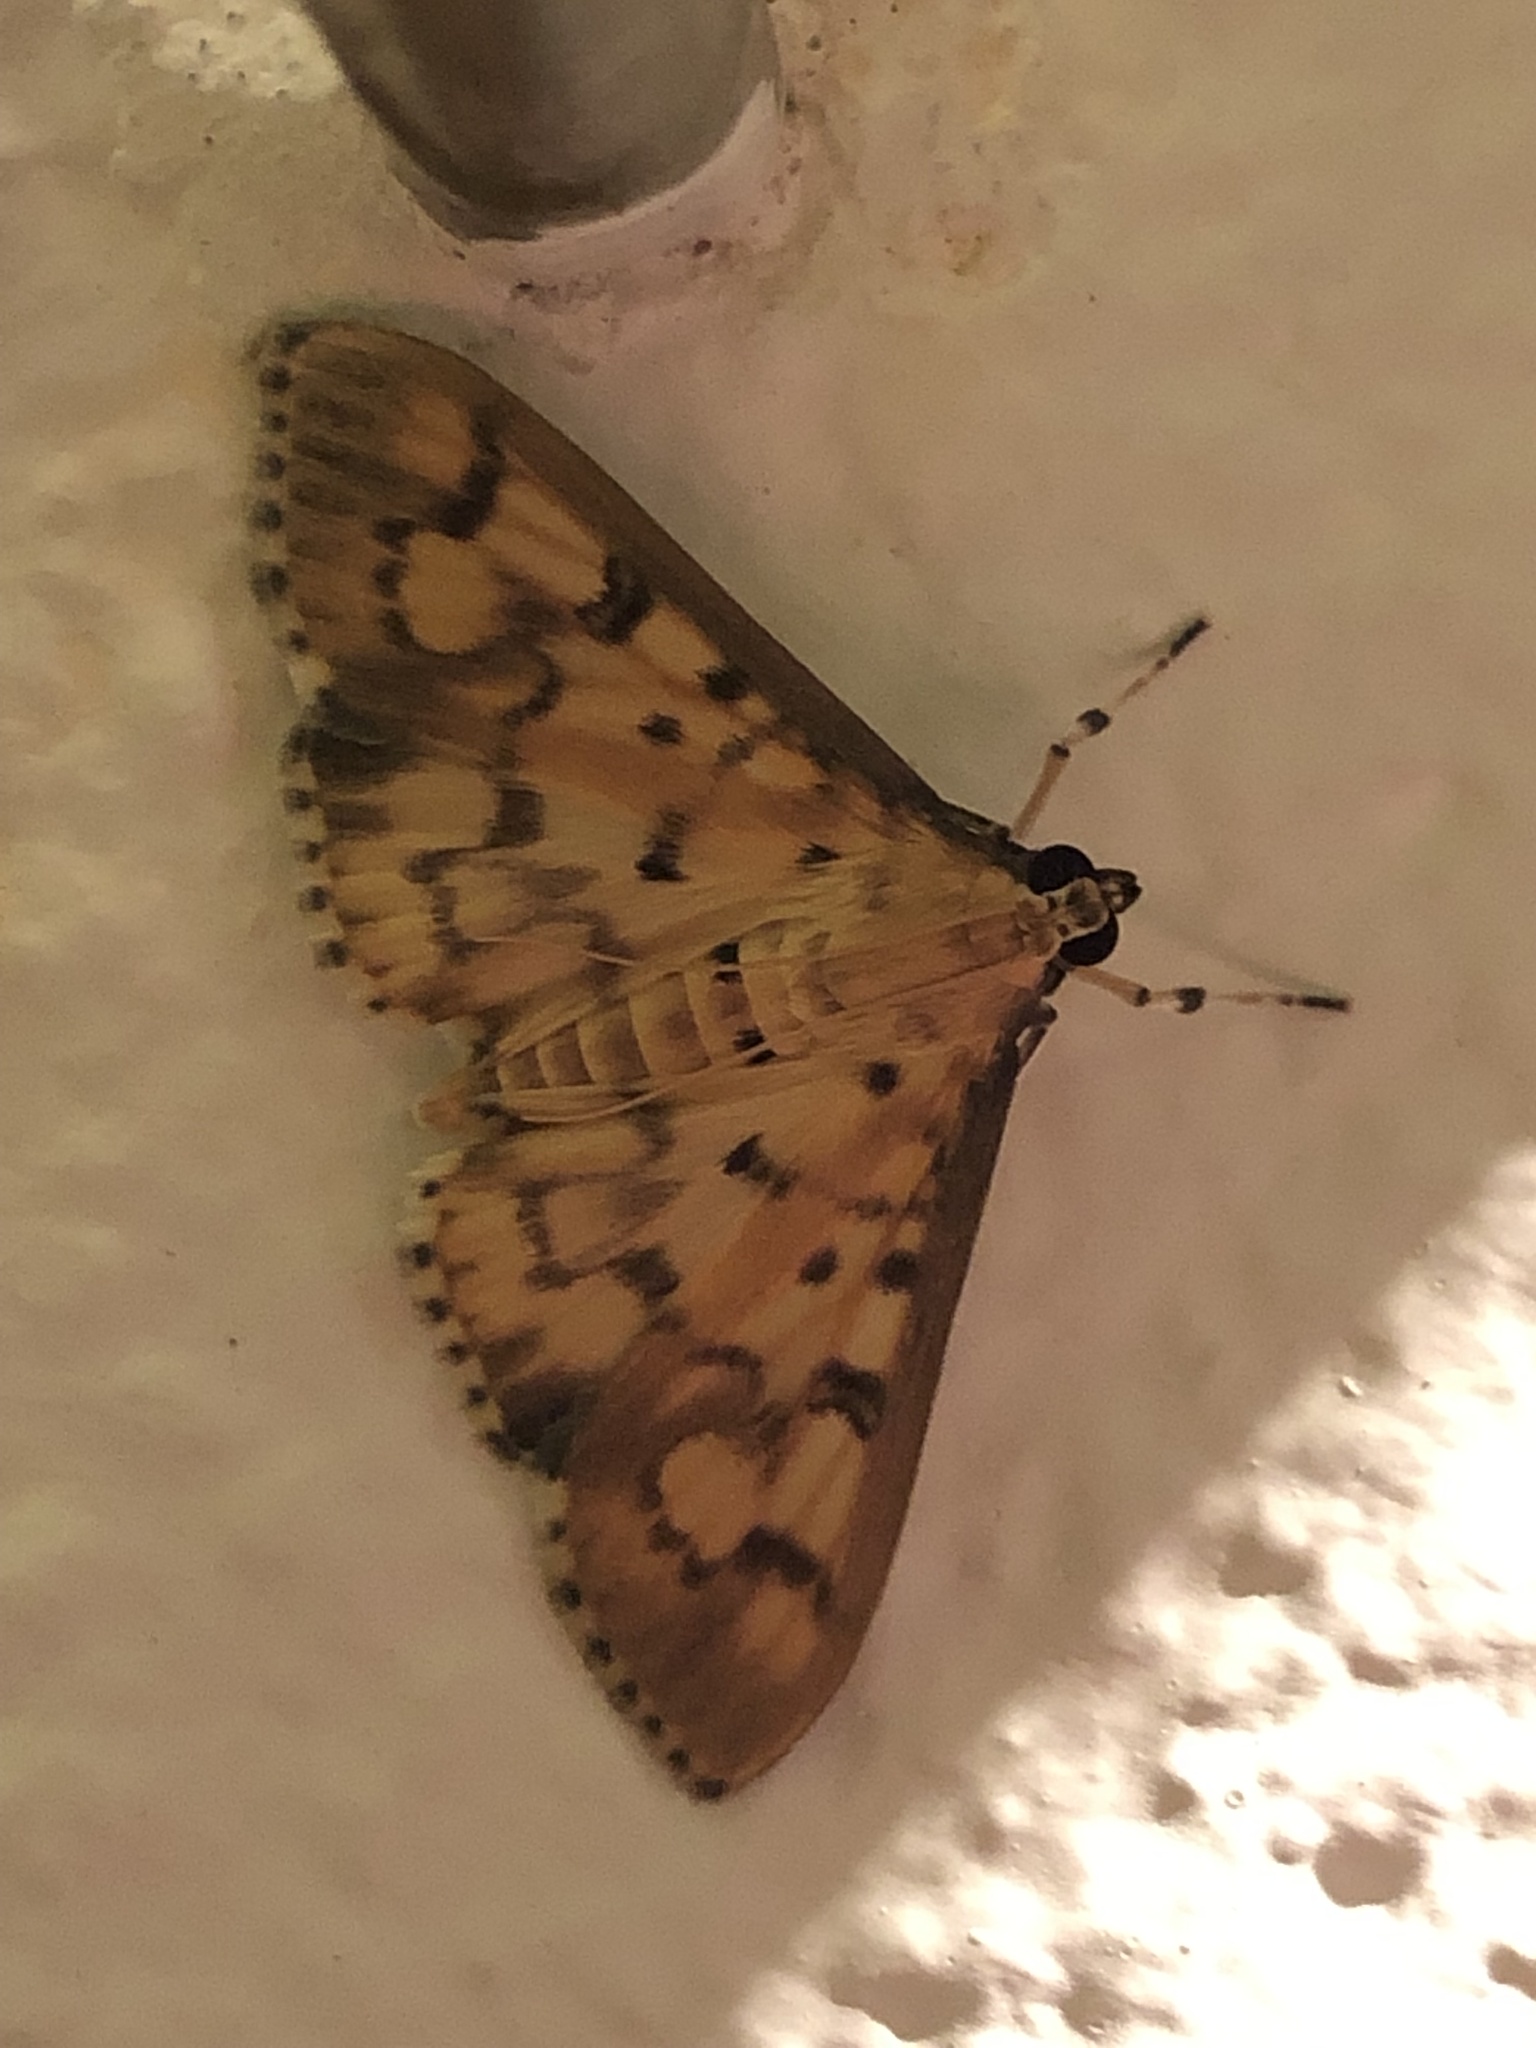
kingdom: Animalia
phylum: Arthropoda
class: Insecta
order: Lepidoptera
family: Crambidae
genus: Patania
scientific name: Patania
